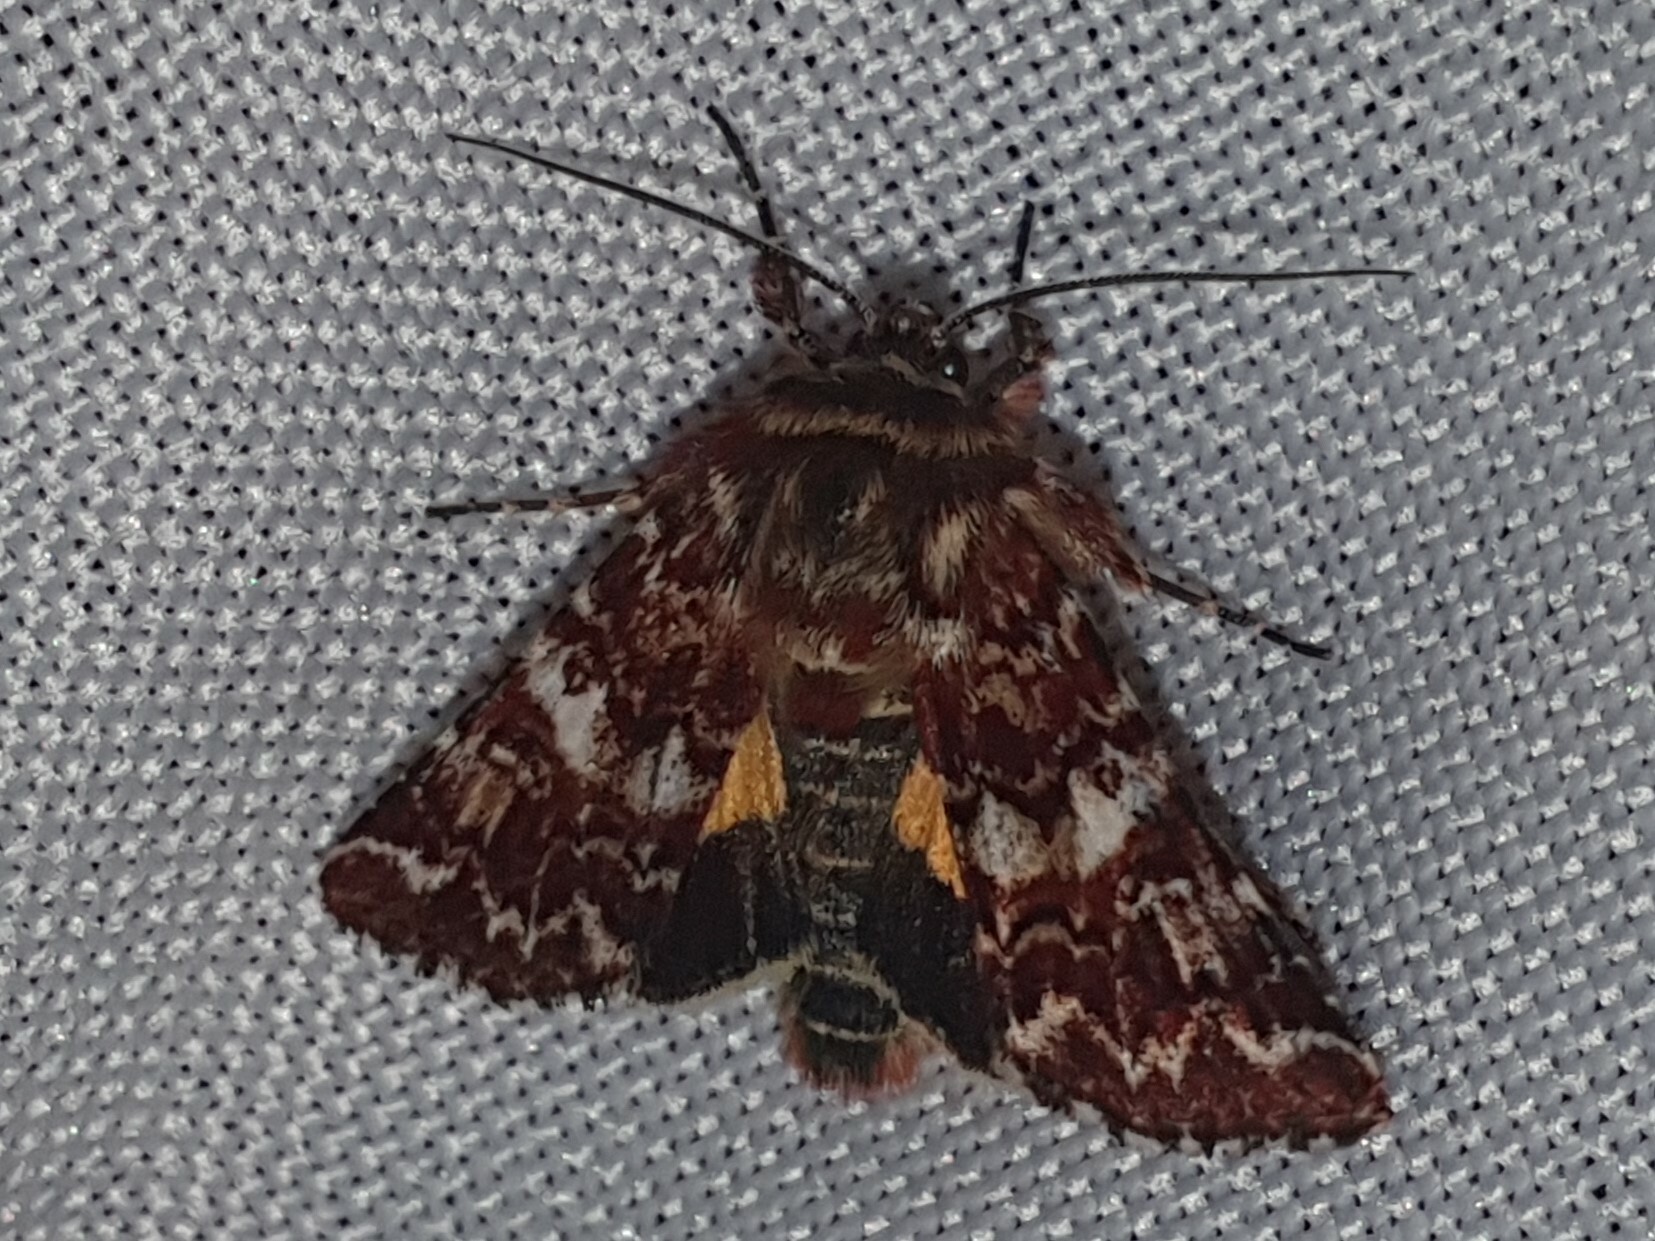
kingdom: Animalia
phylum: Arthropoda
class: Insecta
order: Lepidoptera
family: Noctuidae
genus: Anarta
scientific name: Anarta myrtilli
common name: Beautiful yellow underwing
